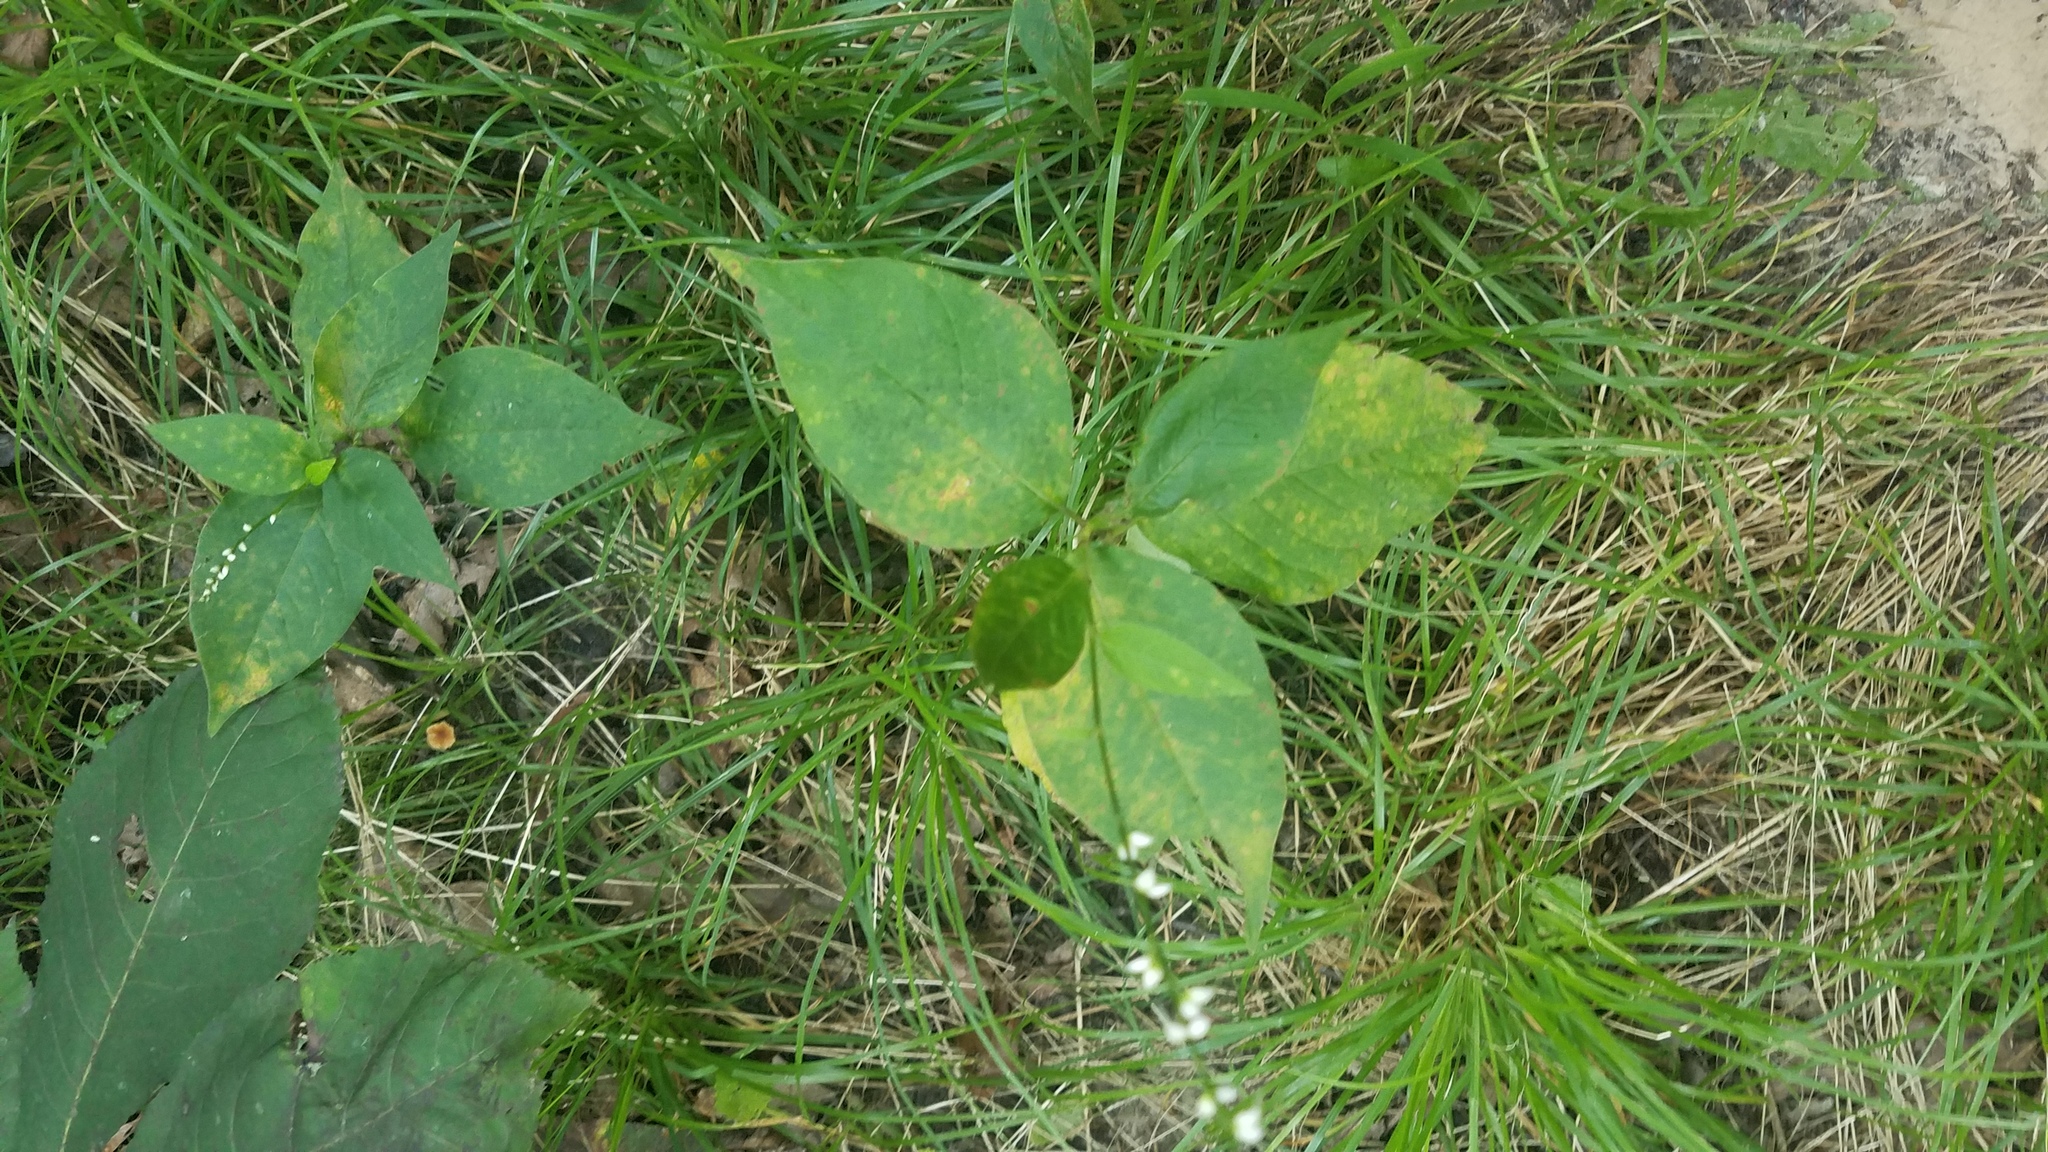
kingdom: Plantae
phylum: Tracheophyta
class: Magnoliopsida
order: Caryophyllales
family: Polygonaceae
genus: Persicaria
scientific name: Persicaria virginiana
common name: Jumpseed
